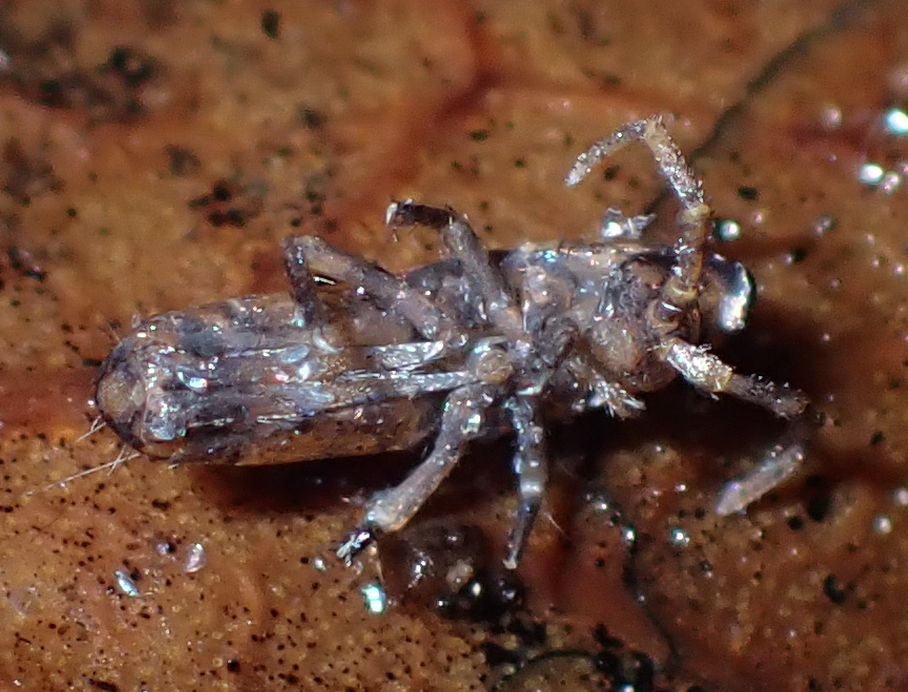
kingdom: Animalia
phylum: Arthropoda
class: Collembola
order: Entomobryomorpha
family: Tomoceridae
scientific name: Tomoceridae
